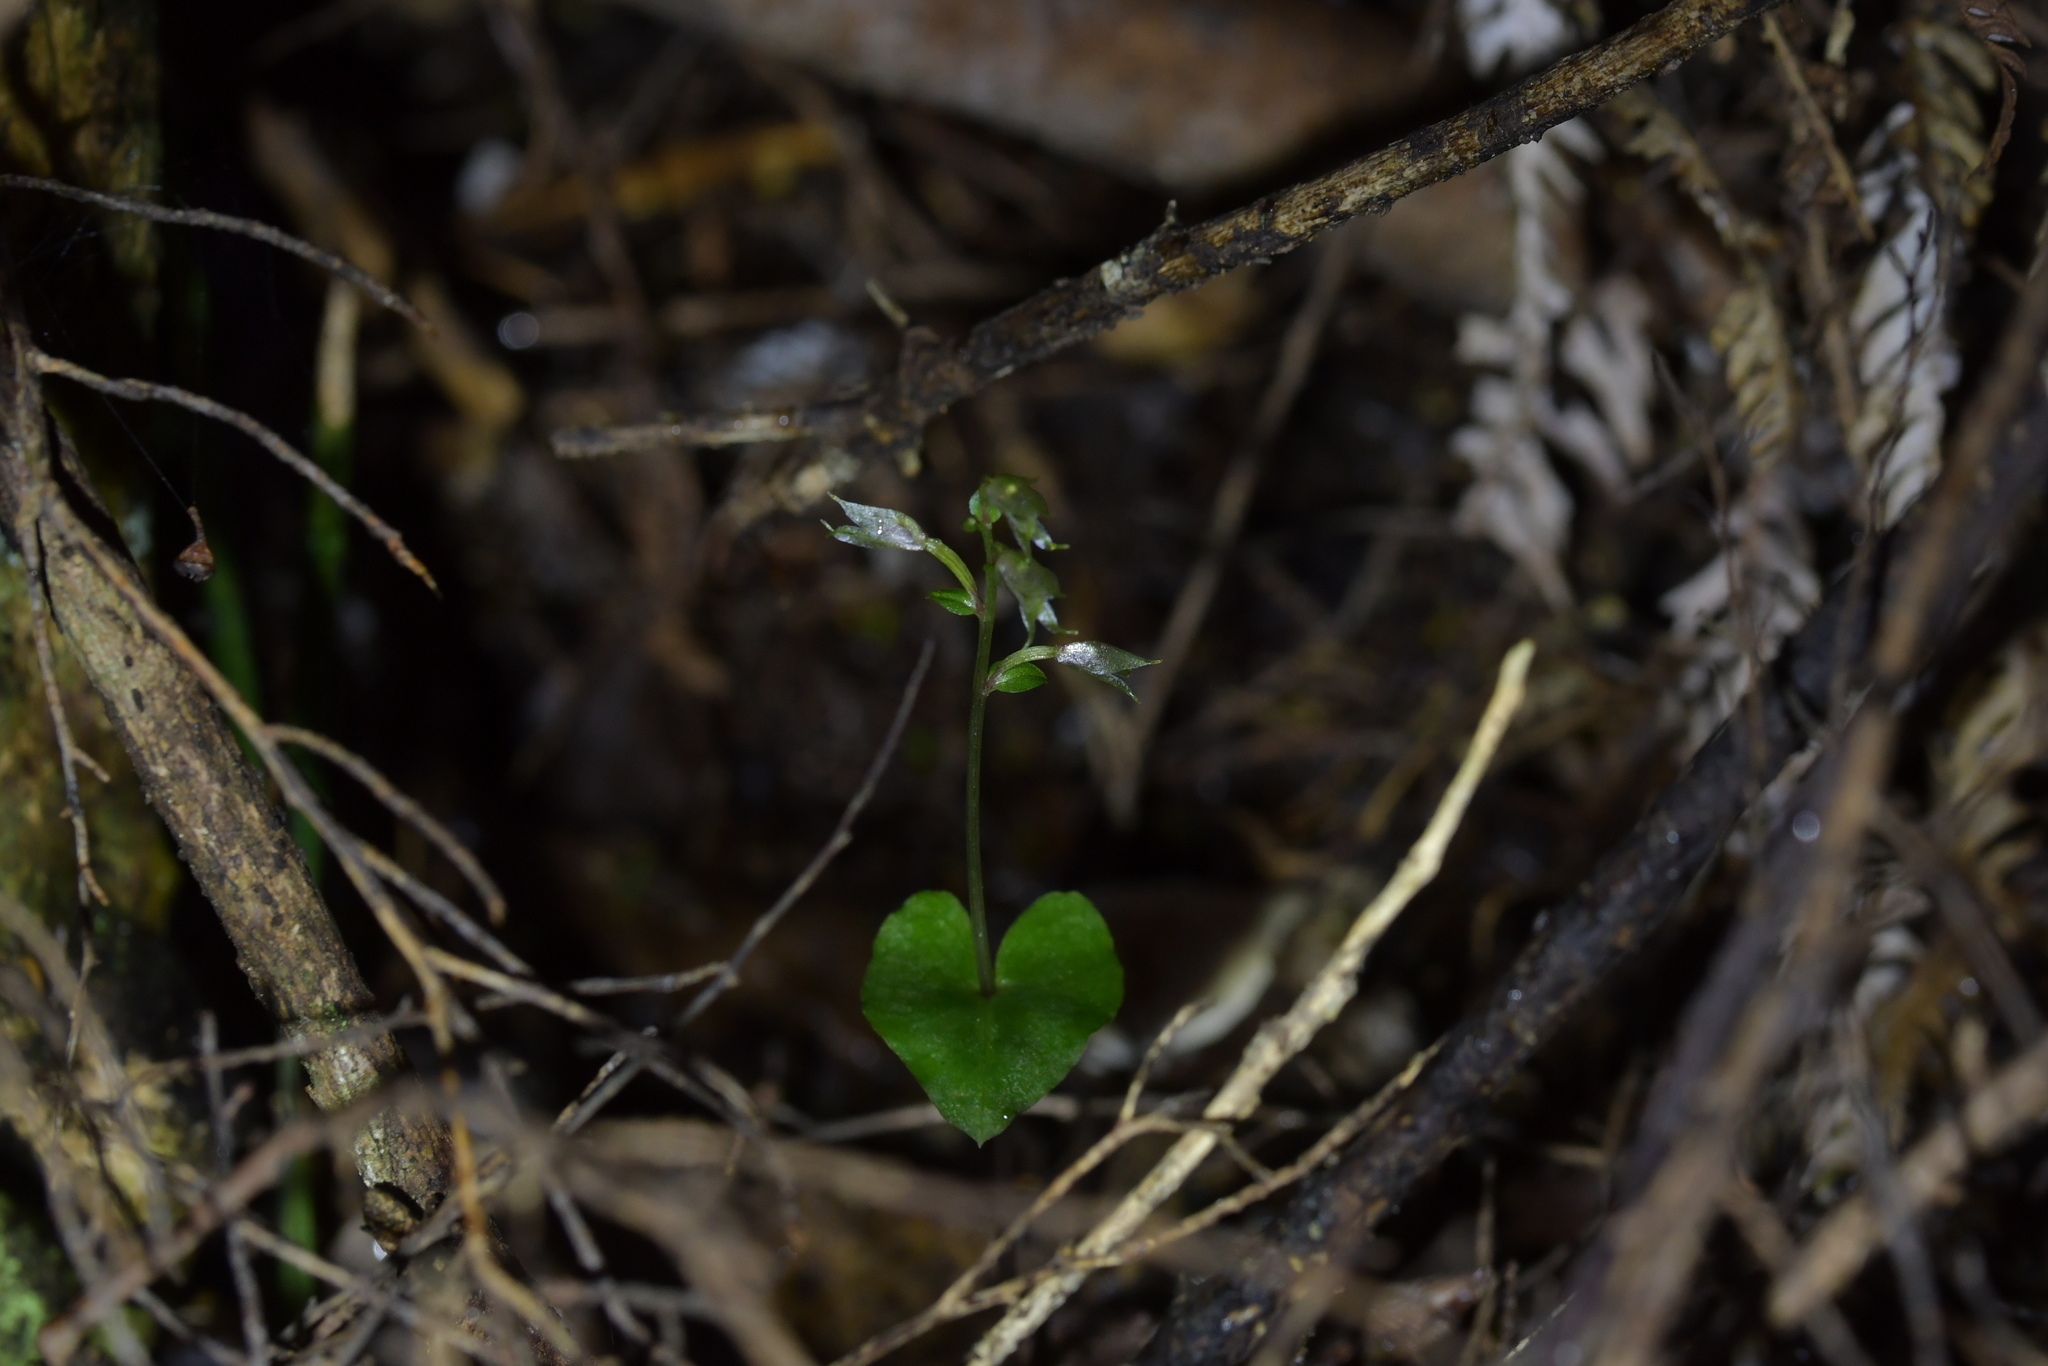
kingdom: Plantae
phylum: Tracheophyta
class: Liliopsida
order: Asparagales
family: Orchidaceae
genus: Acianthus
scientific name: Acianthus sinclairii
